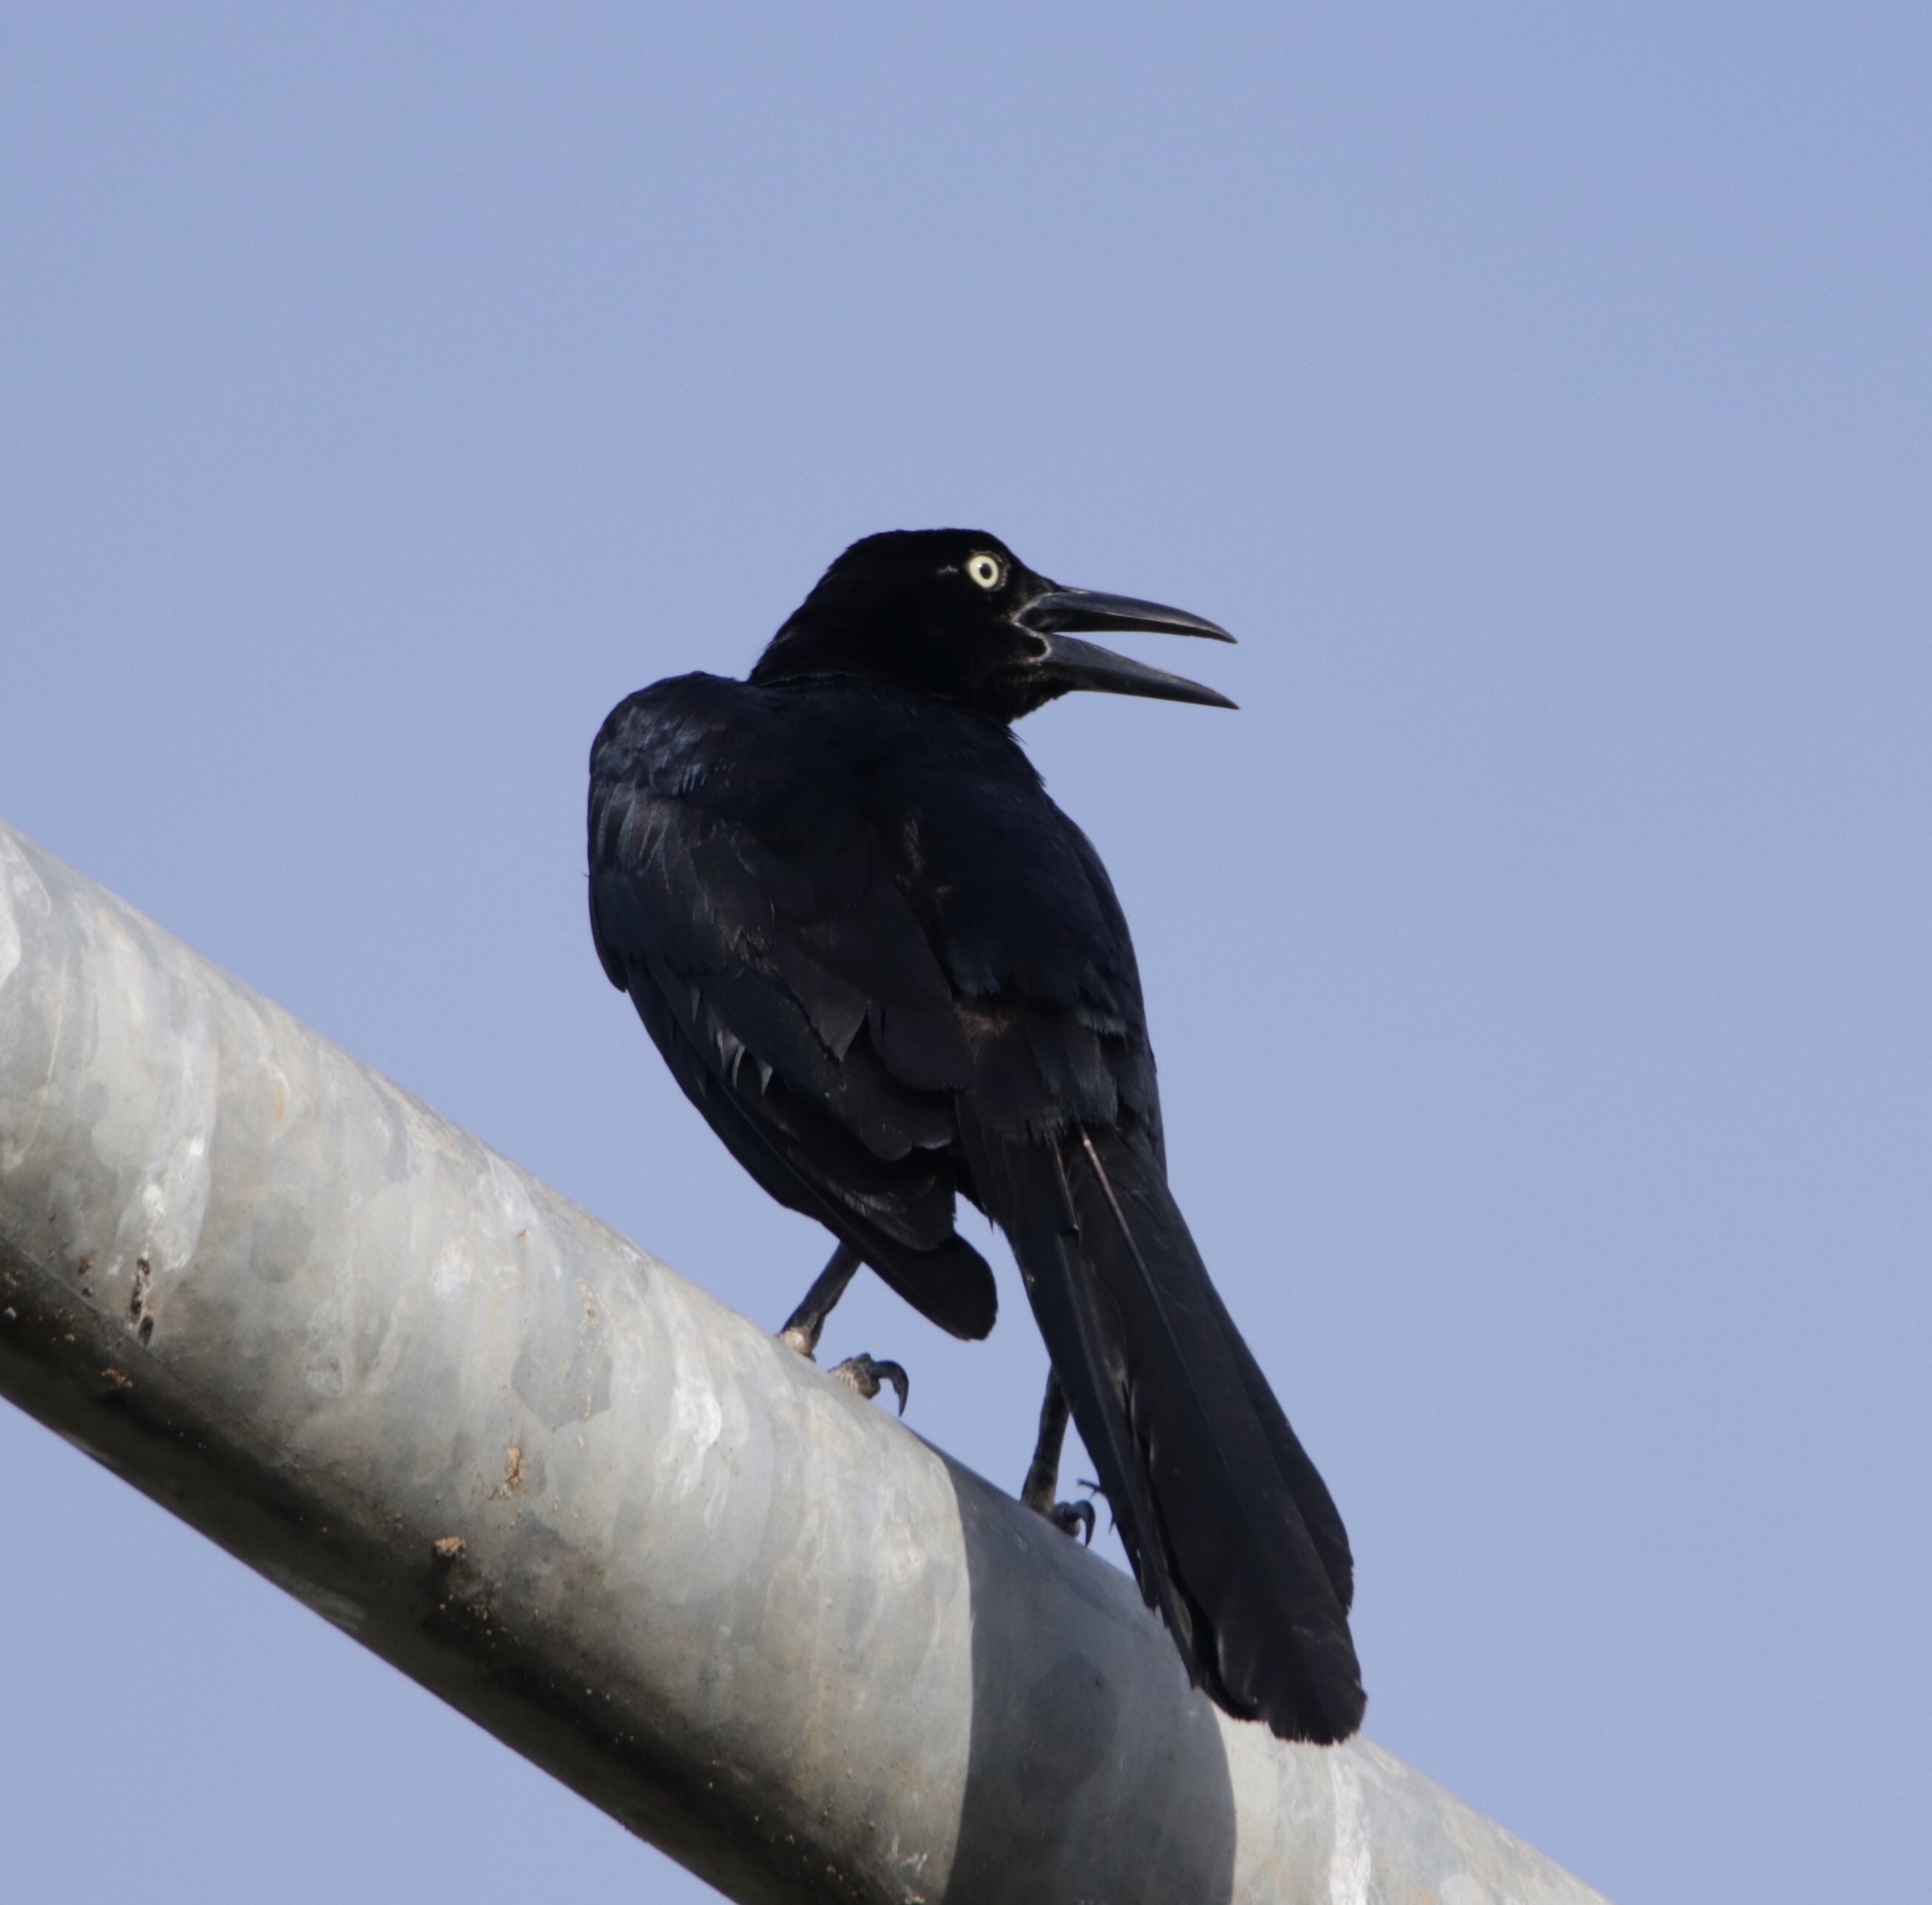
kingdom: Animalia
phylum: Chordata
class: Aves
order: Passeriformes
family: Icteridae
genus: Quiscalus
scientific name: Quiscalus mexicanus
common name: Great-tailed grackle
